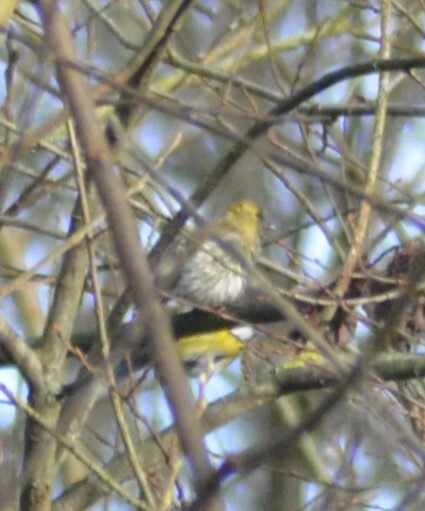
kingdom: Animalia
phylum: Chordata
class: Aves
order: Passeriformes
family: Fringillidae
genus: Spinus
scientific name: Spinus spinus
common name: Eurasian siskin
